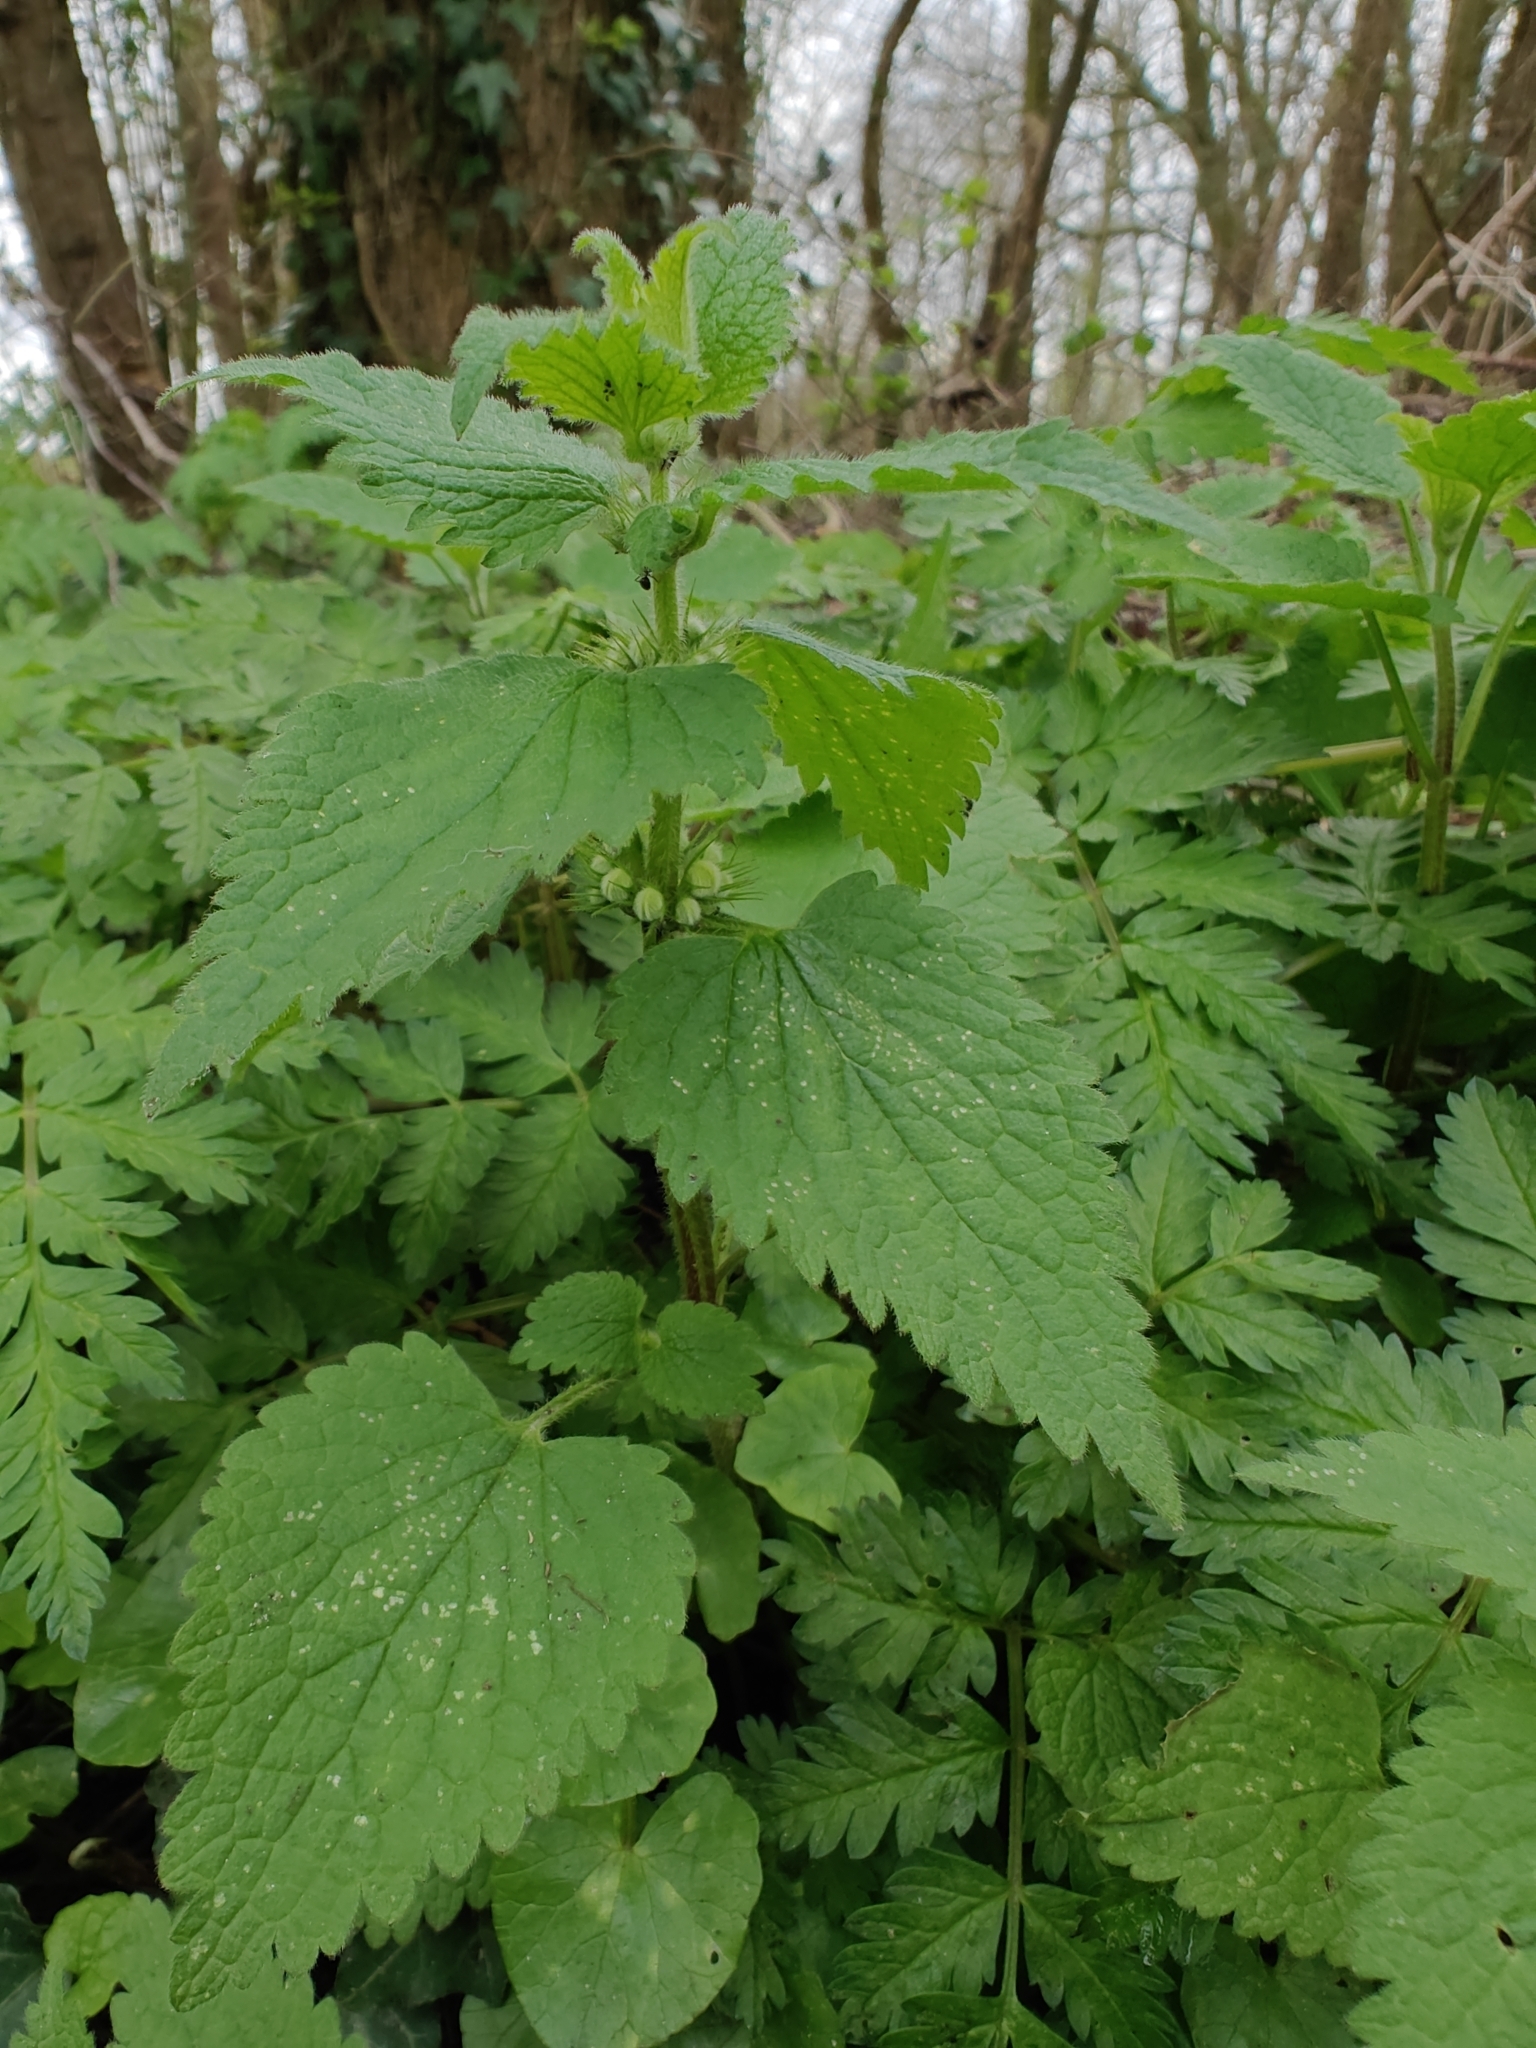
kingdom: Plantae
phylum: Tracheophyta
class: Magnoliopsida
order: Lamiales
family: Lamiaceae
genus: Lamium
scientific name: Lamium album
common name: White dead-nettle
